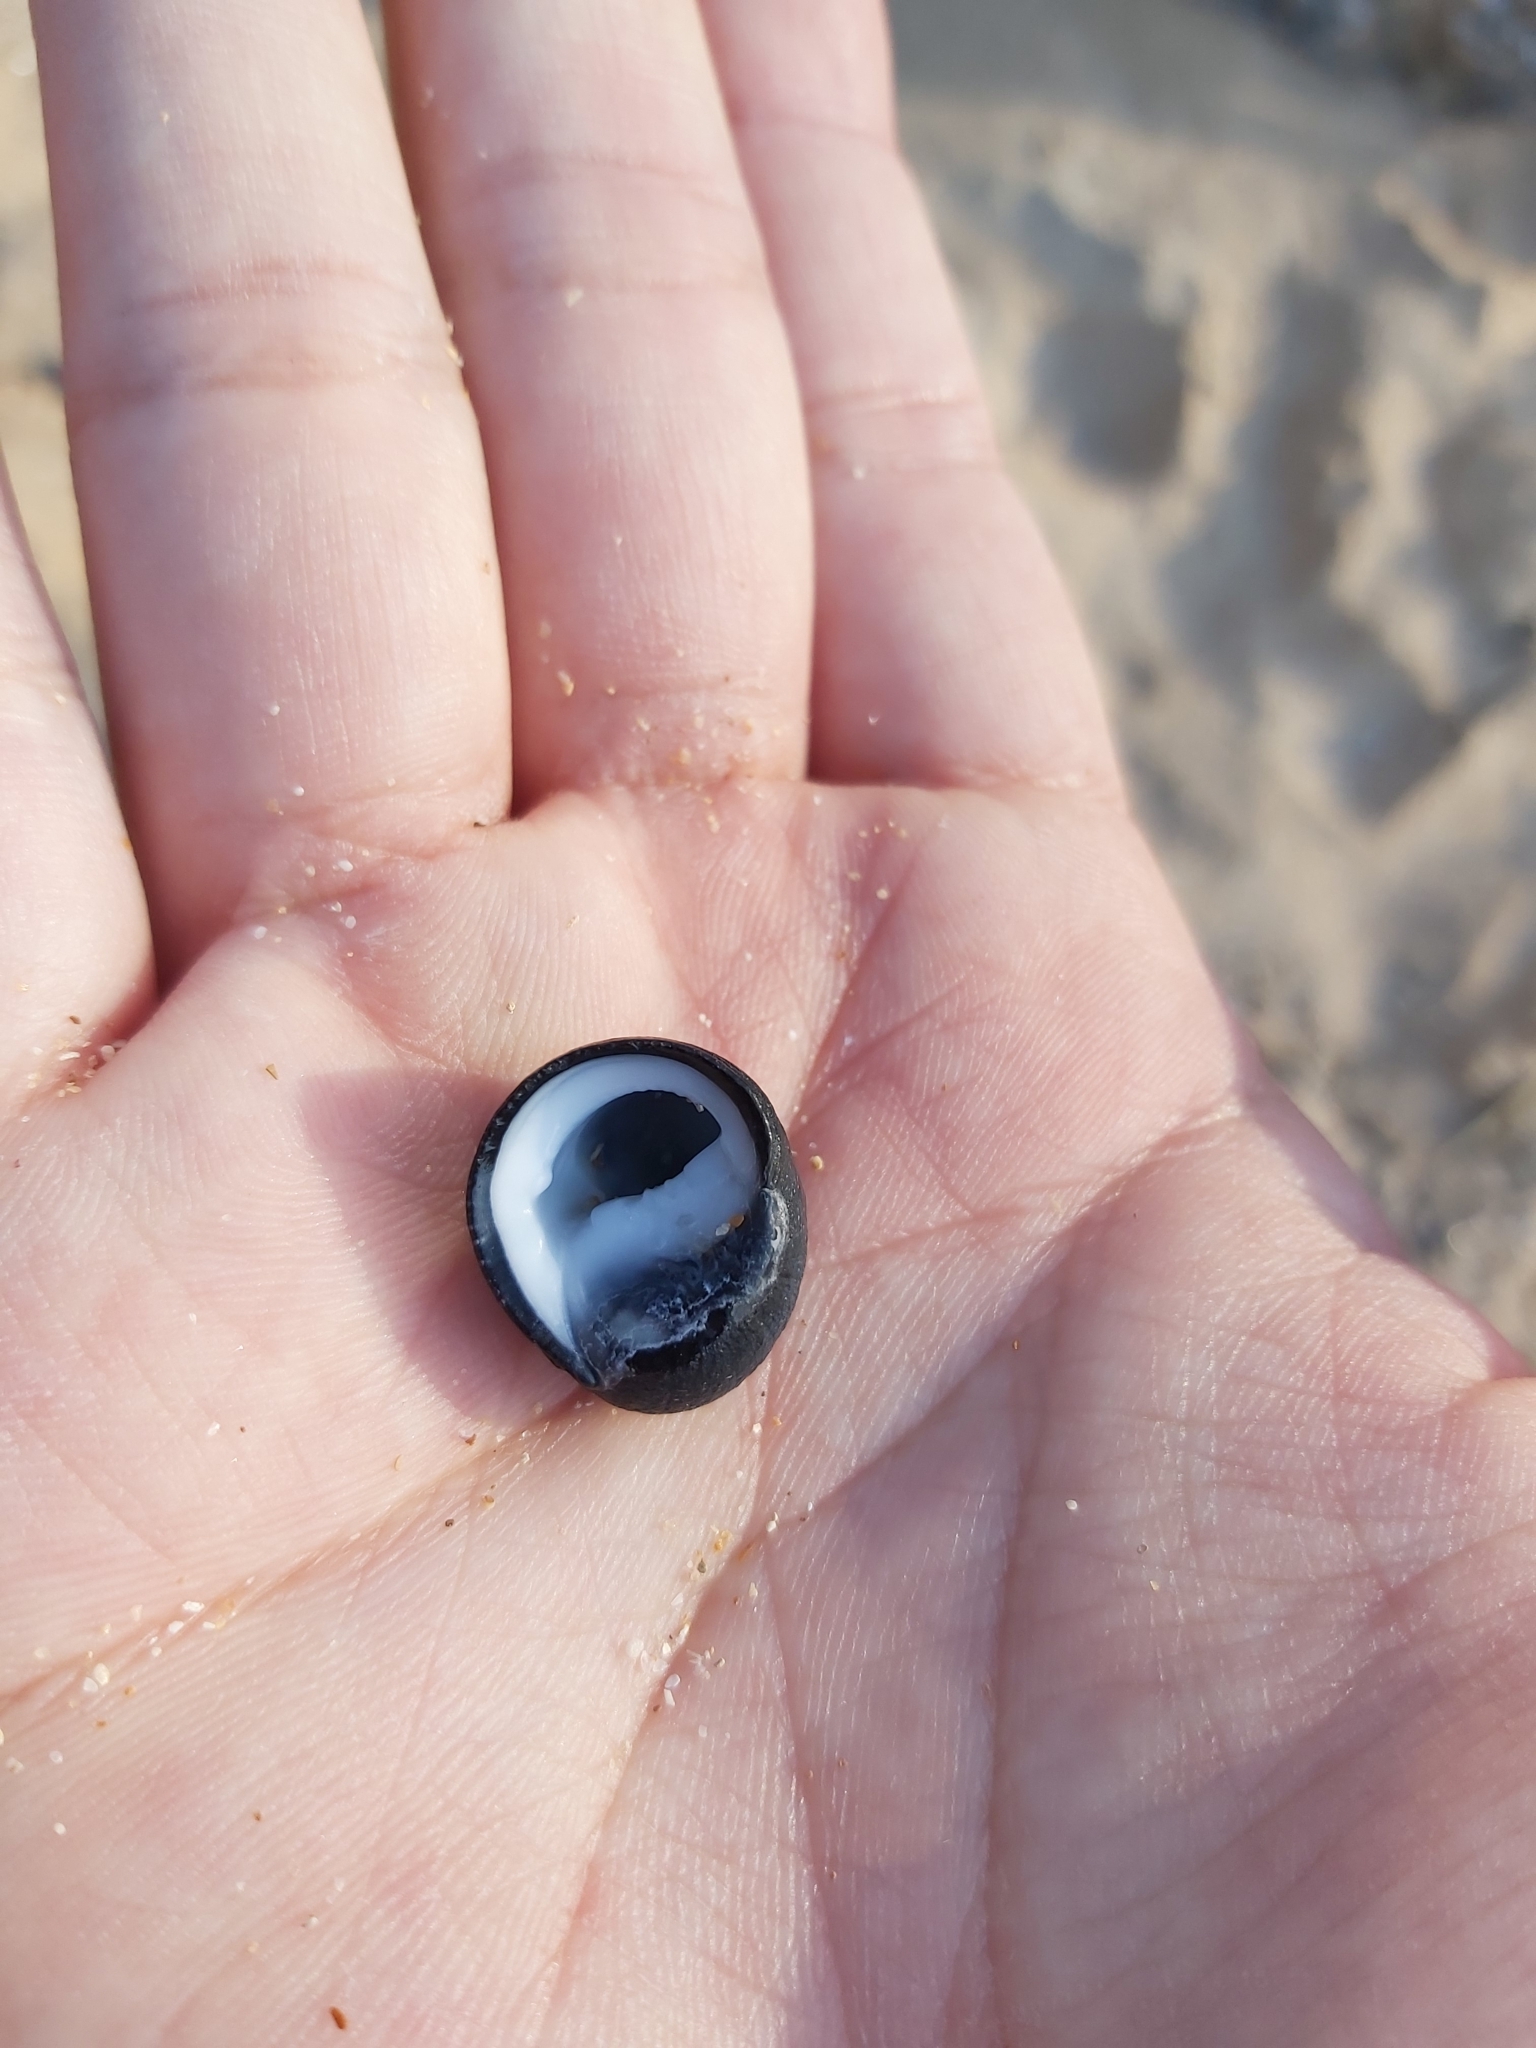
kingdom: Animalia
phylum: Mollusca
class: Gastropoda
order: Cycloneritida
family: Neritidae
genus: Nerita
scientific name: Nerita melanotragus
